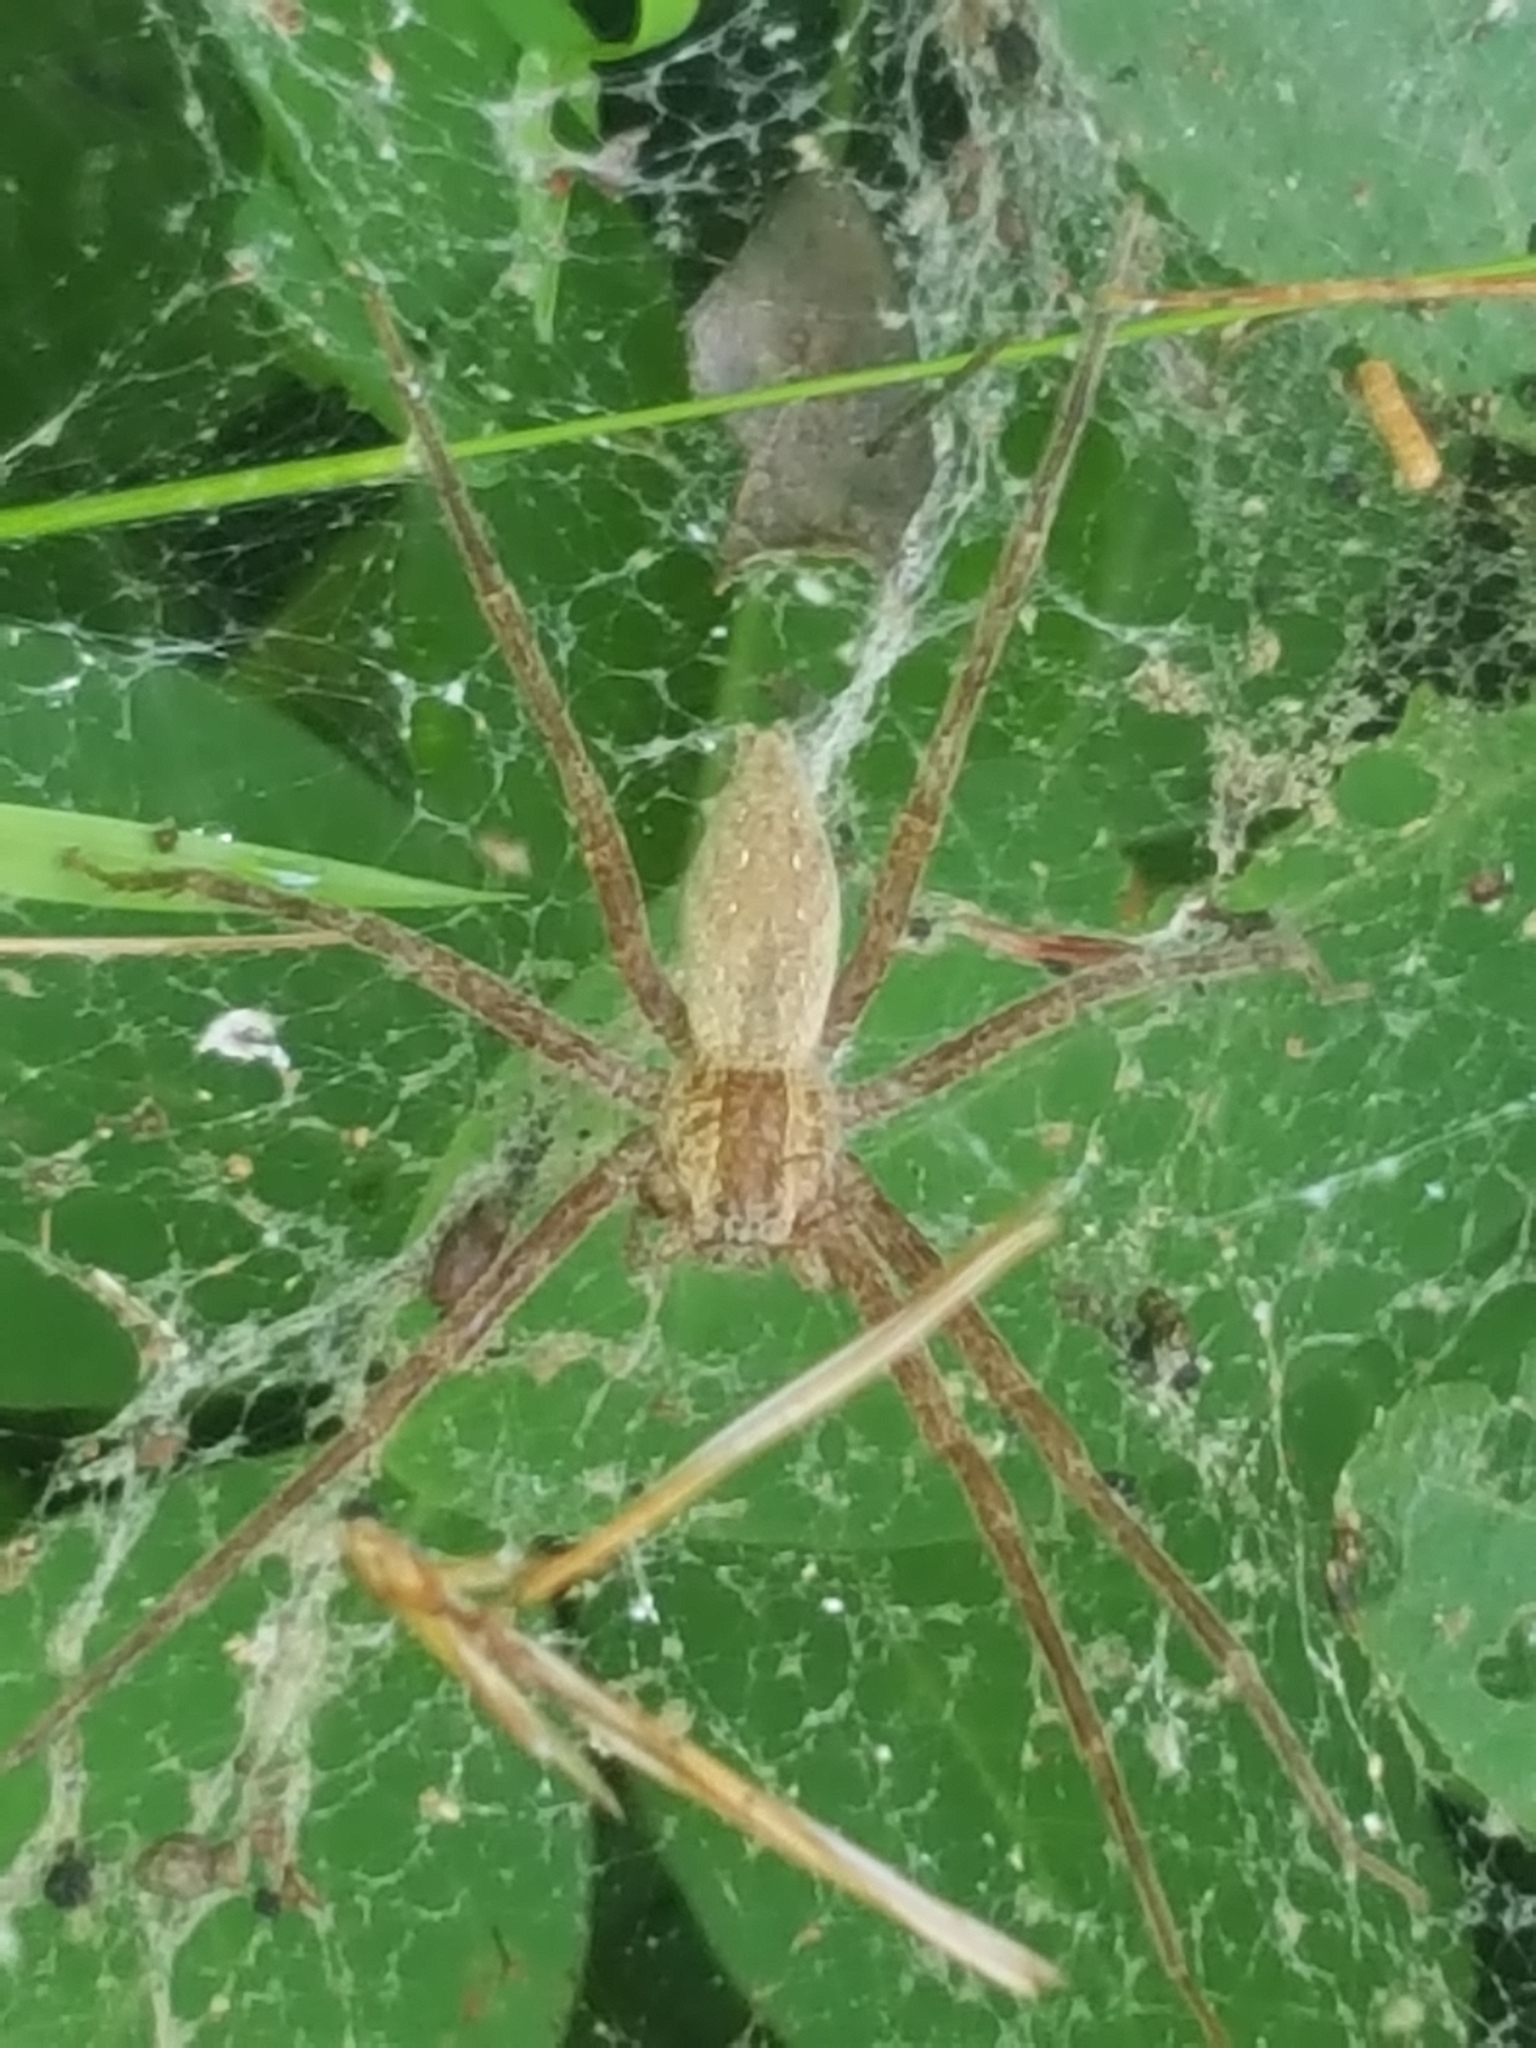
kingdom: Animalia
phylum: Arthropoda
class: Arachnida
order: Araneae
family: Pisauridae
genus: Pisaurina
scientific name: Pisaurina mira
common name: American nursery web spider
